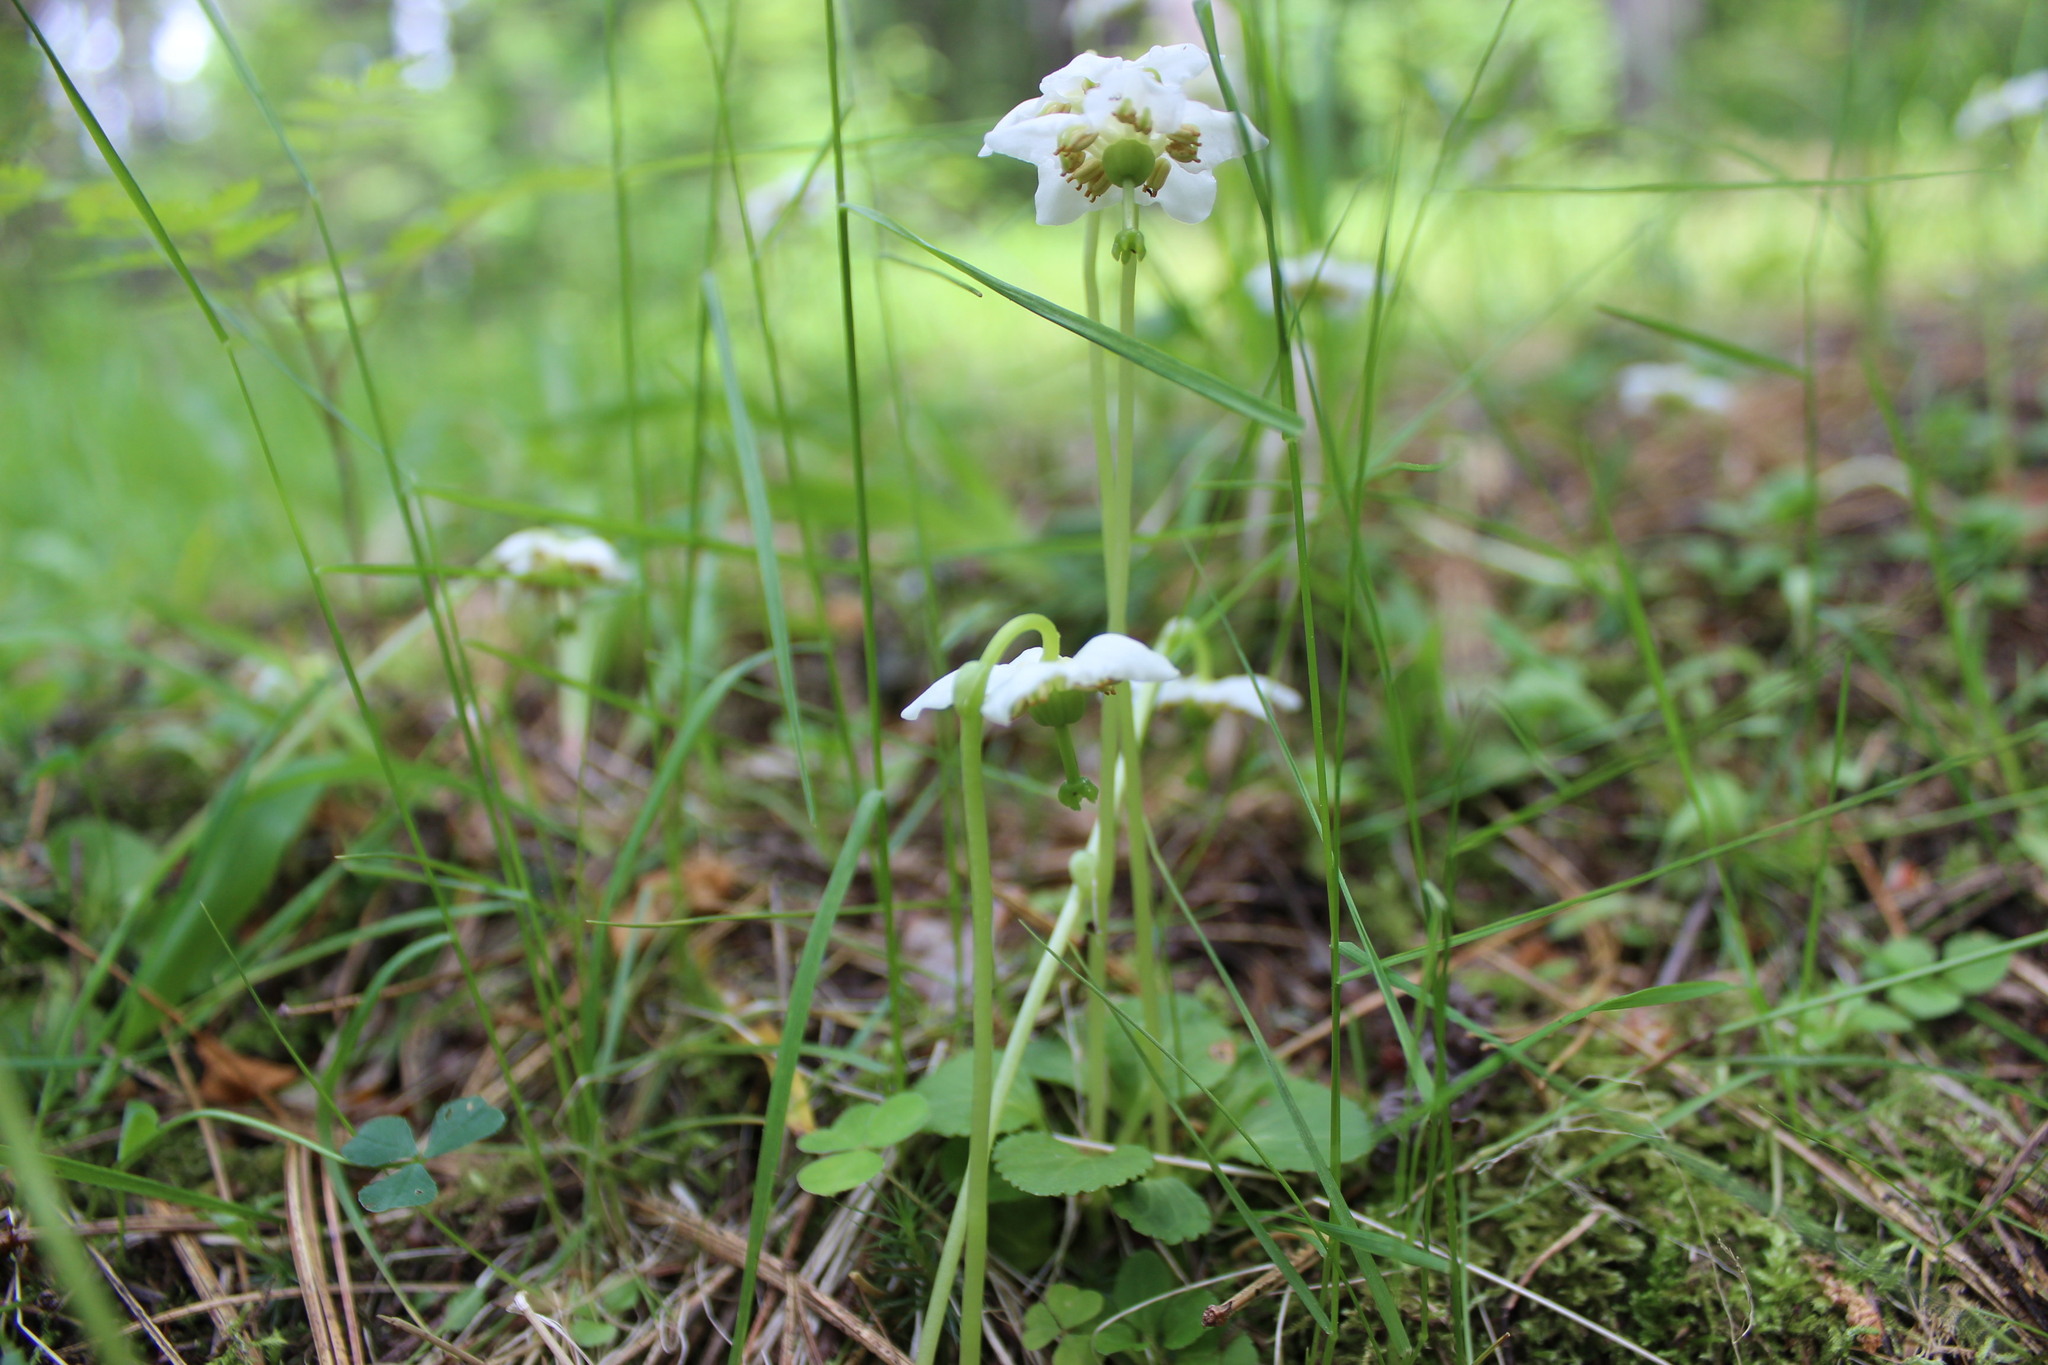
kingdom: Plantae
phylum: Tracheophyta
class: Magnoliopsida
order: Ericales
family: Ericaceae
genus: Moneses
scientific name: Moneses uniflora
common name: One-flowered wintergreen
